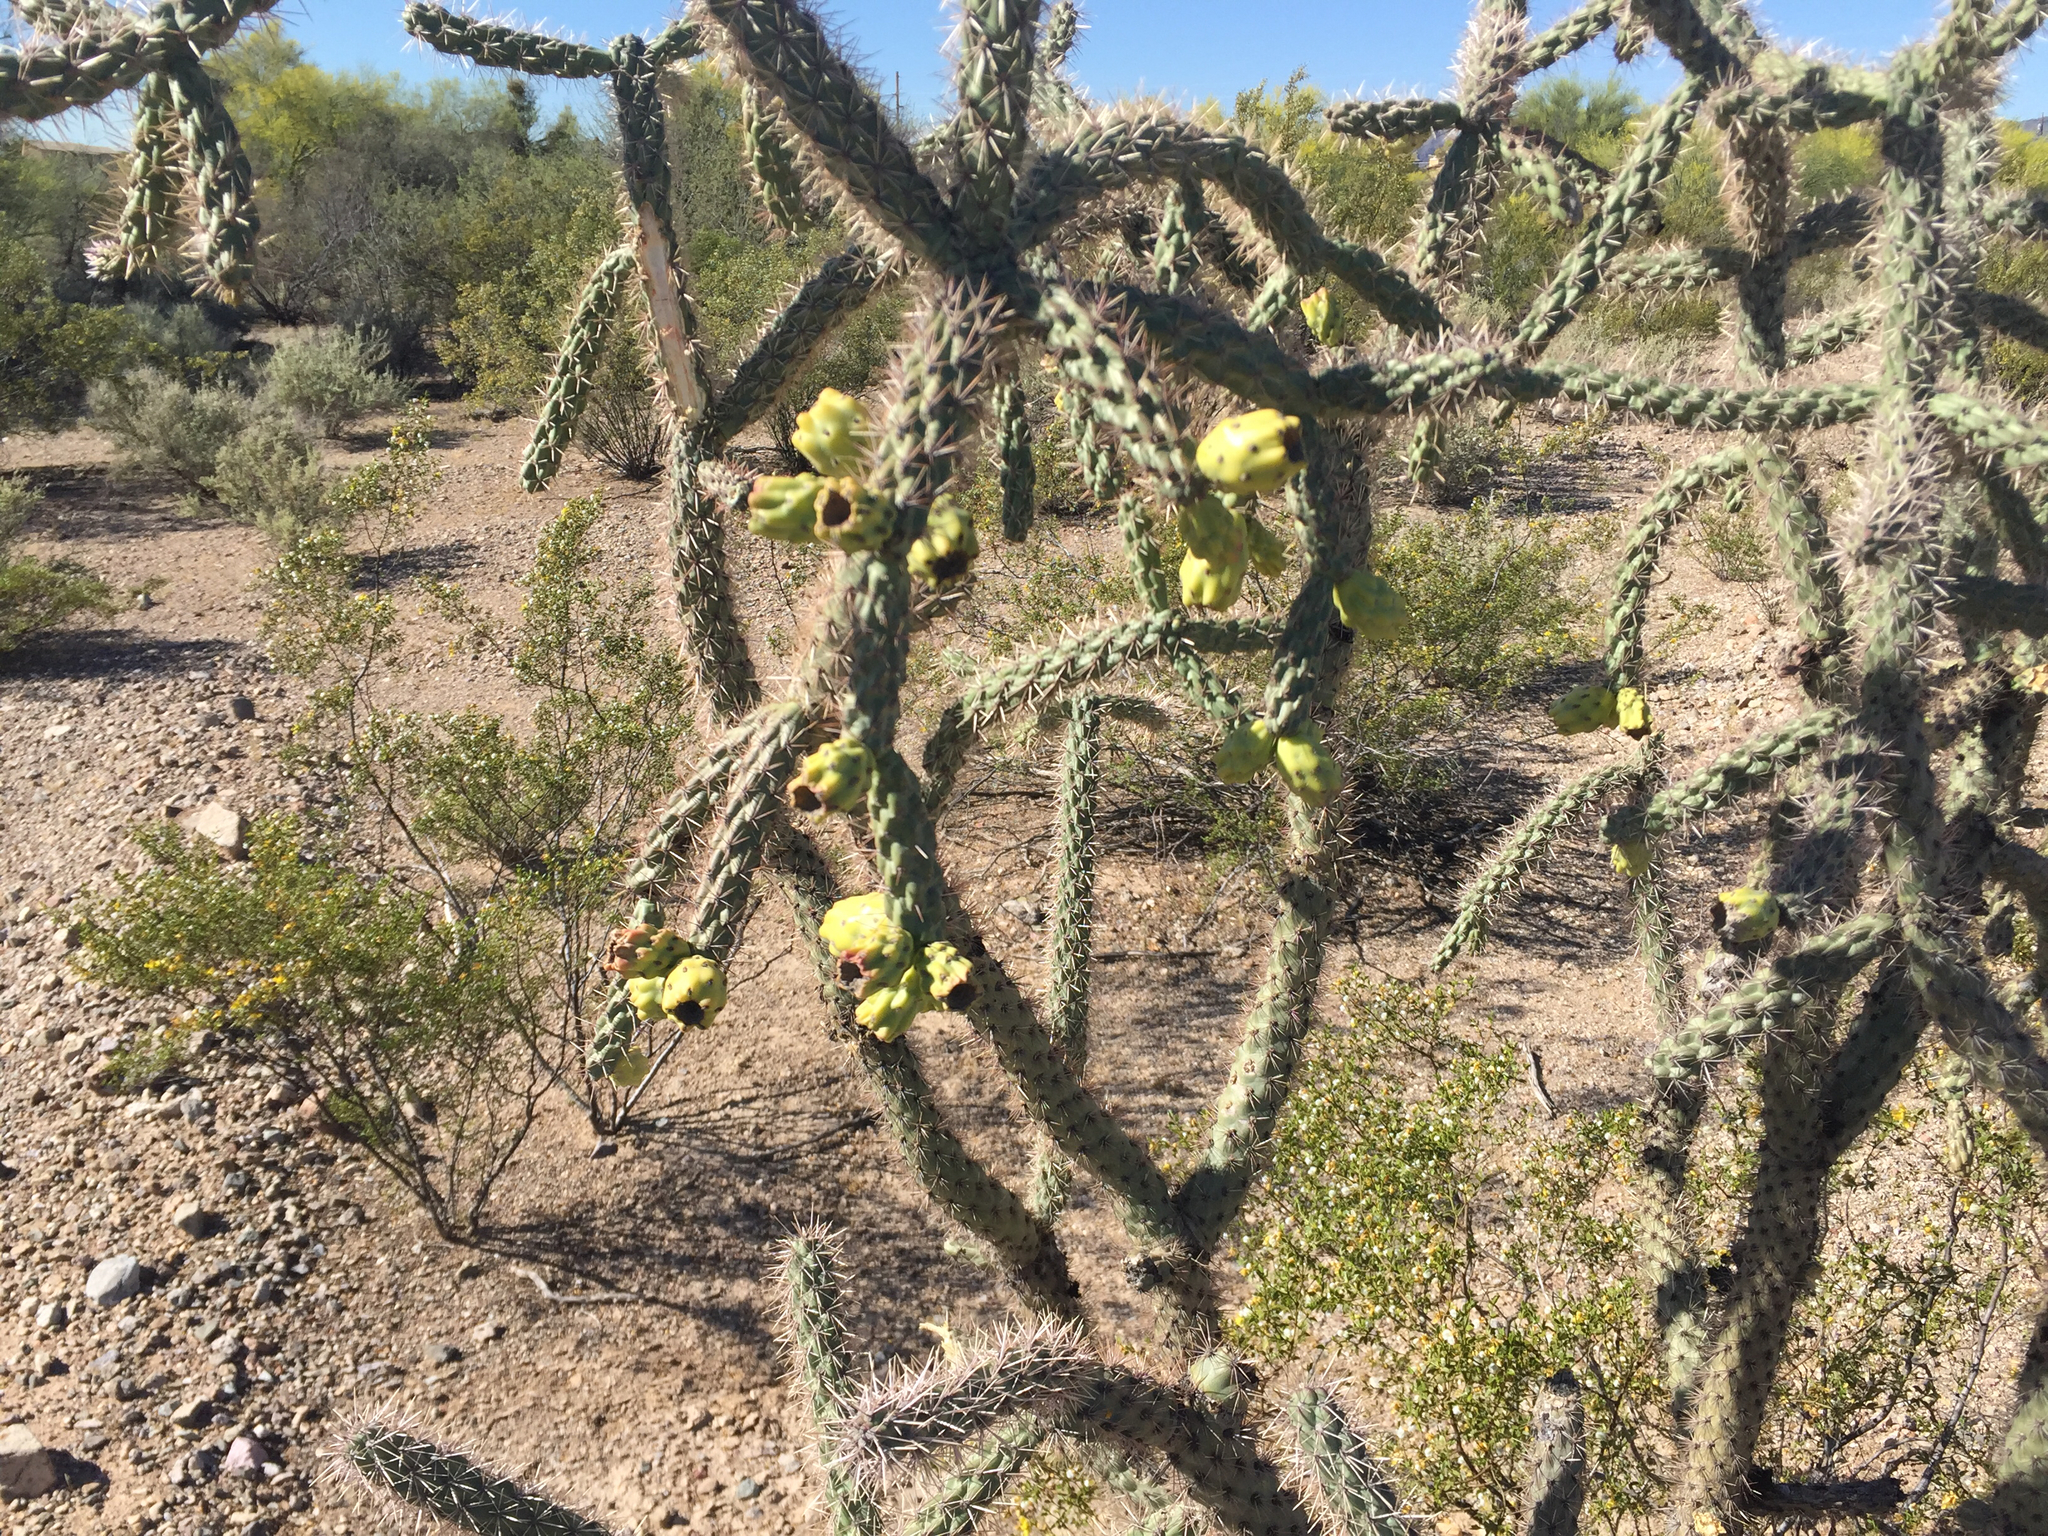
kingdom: Plantae
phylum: Tracheophyta
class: Magnoliopsida
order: Caryophyllales
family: Cactaceae
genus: Cylindropuntia
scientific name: Cylindropuntia imbricata
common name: Candelabrum cactus
